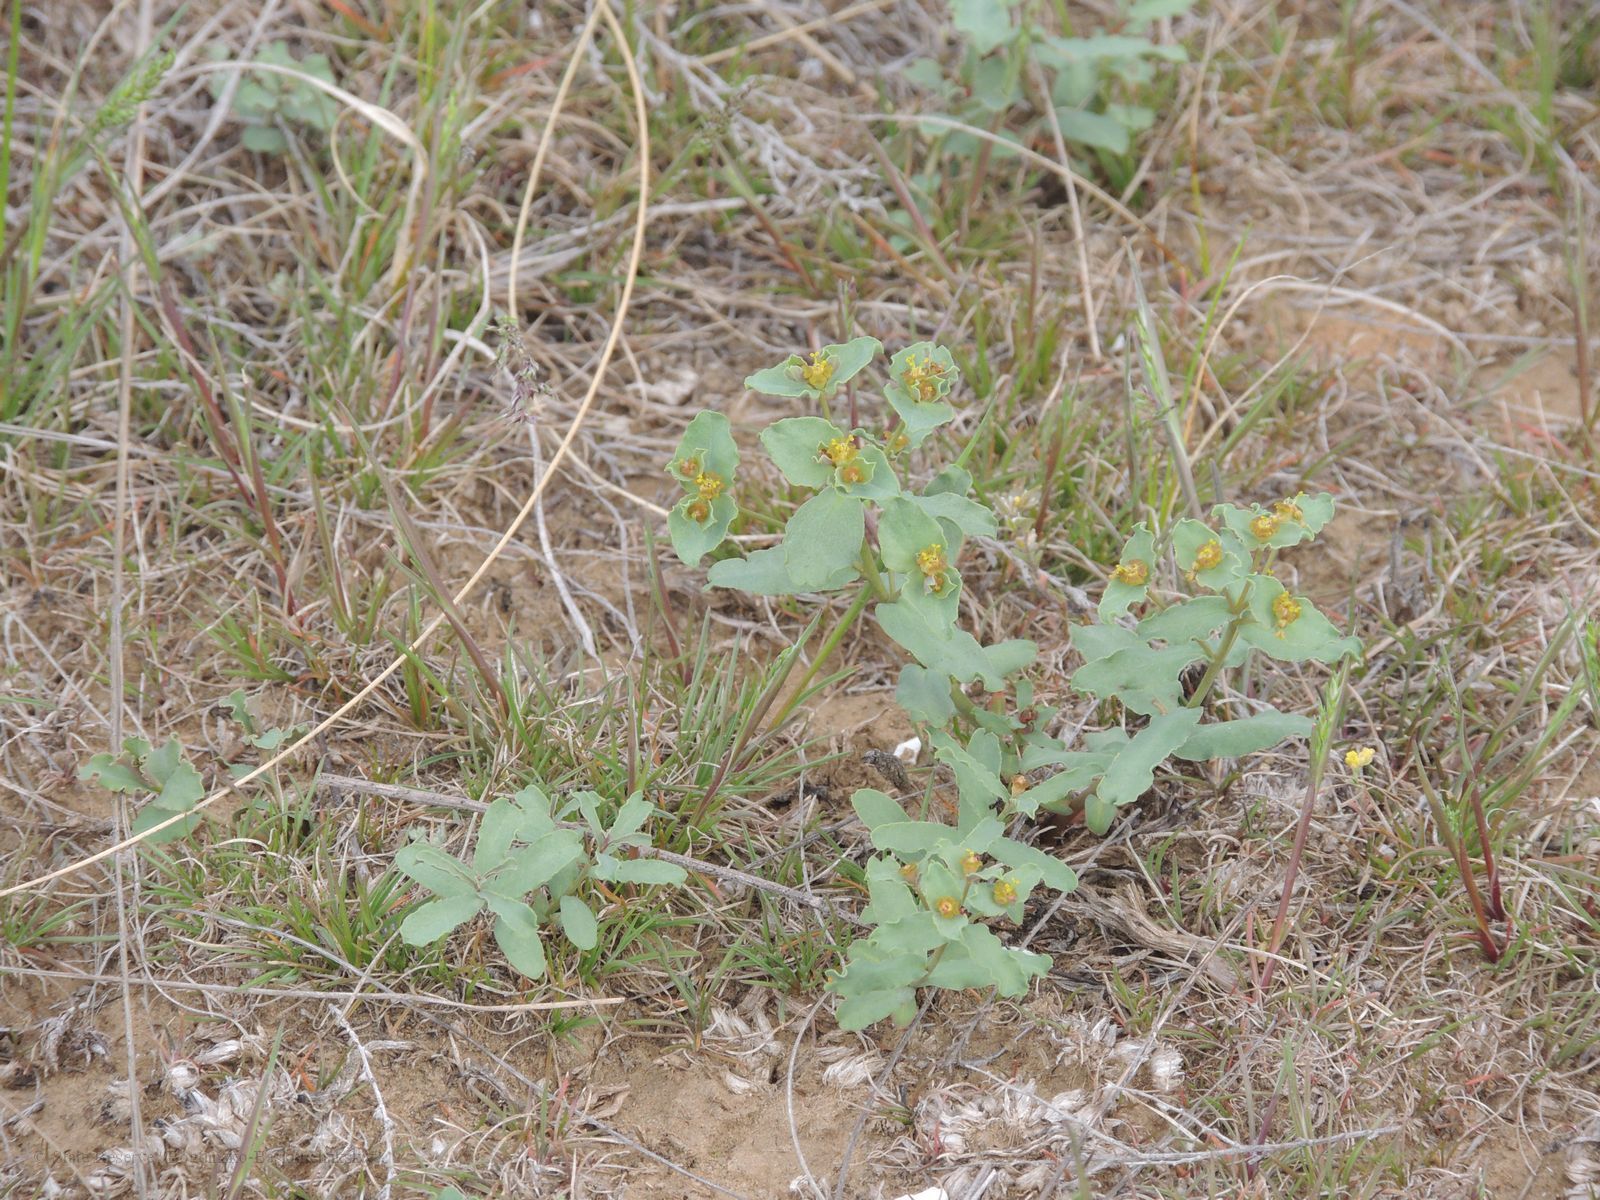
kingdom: Plantae
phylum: Tracheophyta
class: Magnoliopsida
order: Malpighiales
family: Euphorbiaceae
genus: Euphorbia
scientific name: Euphorbia undulata
